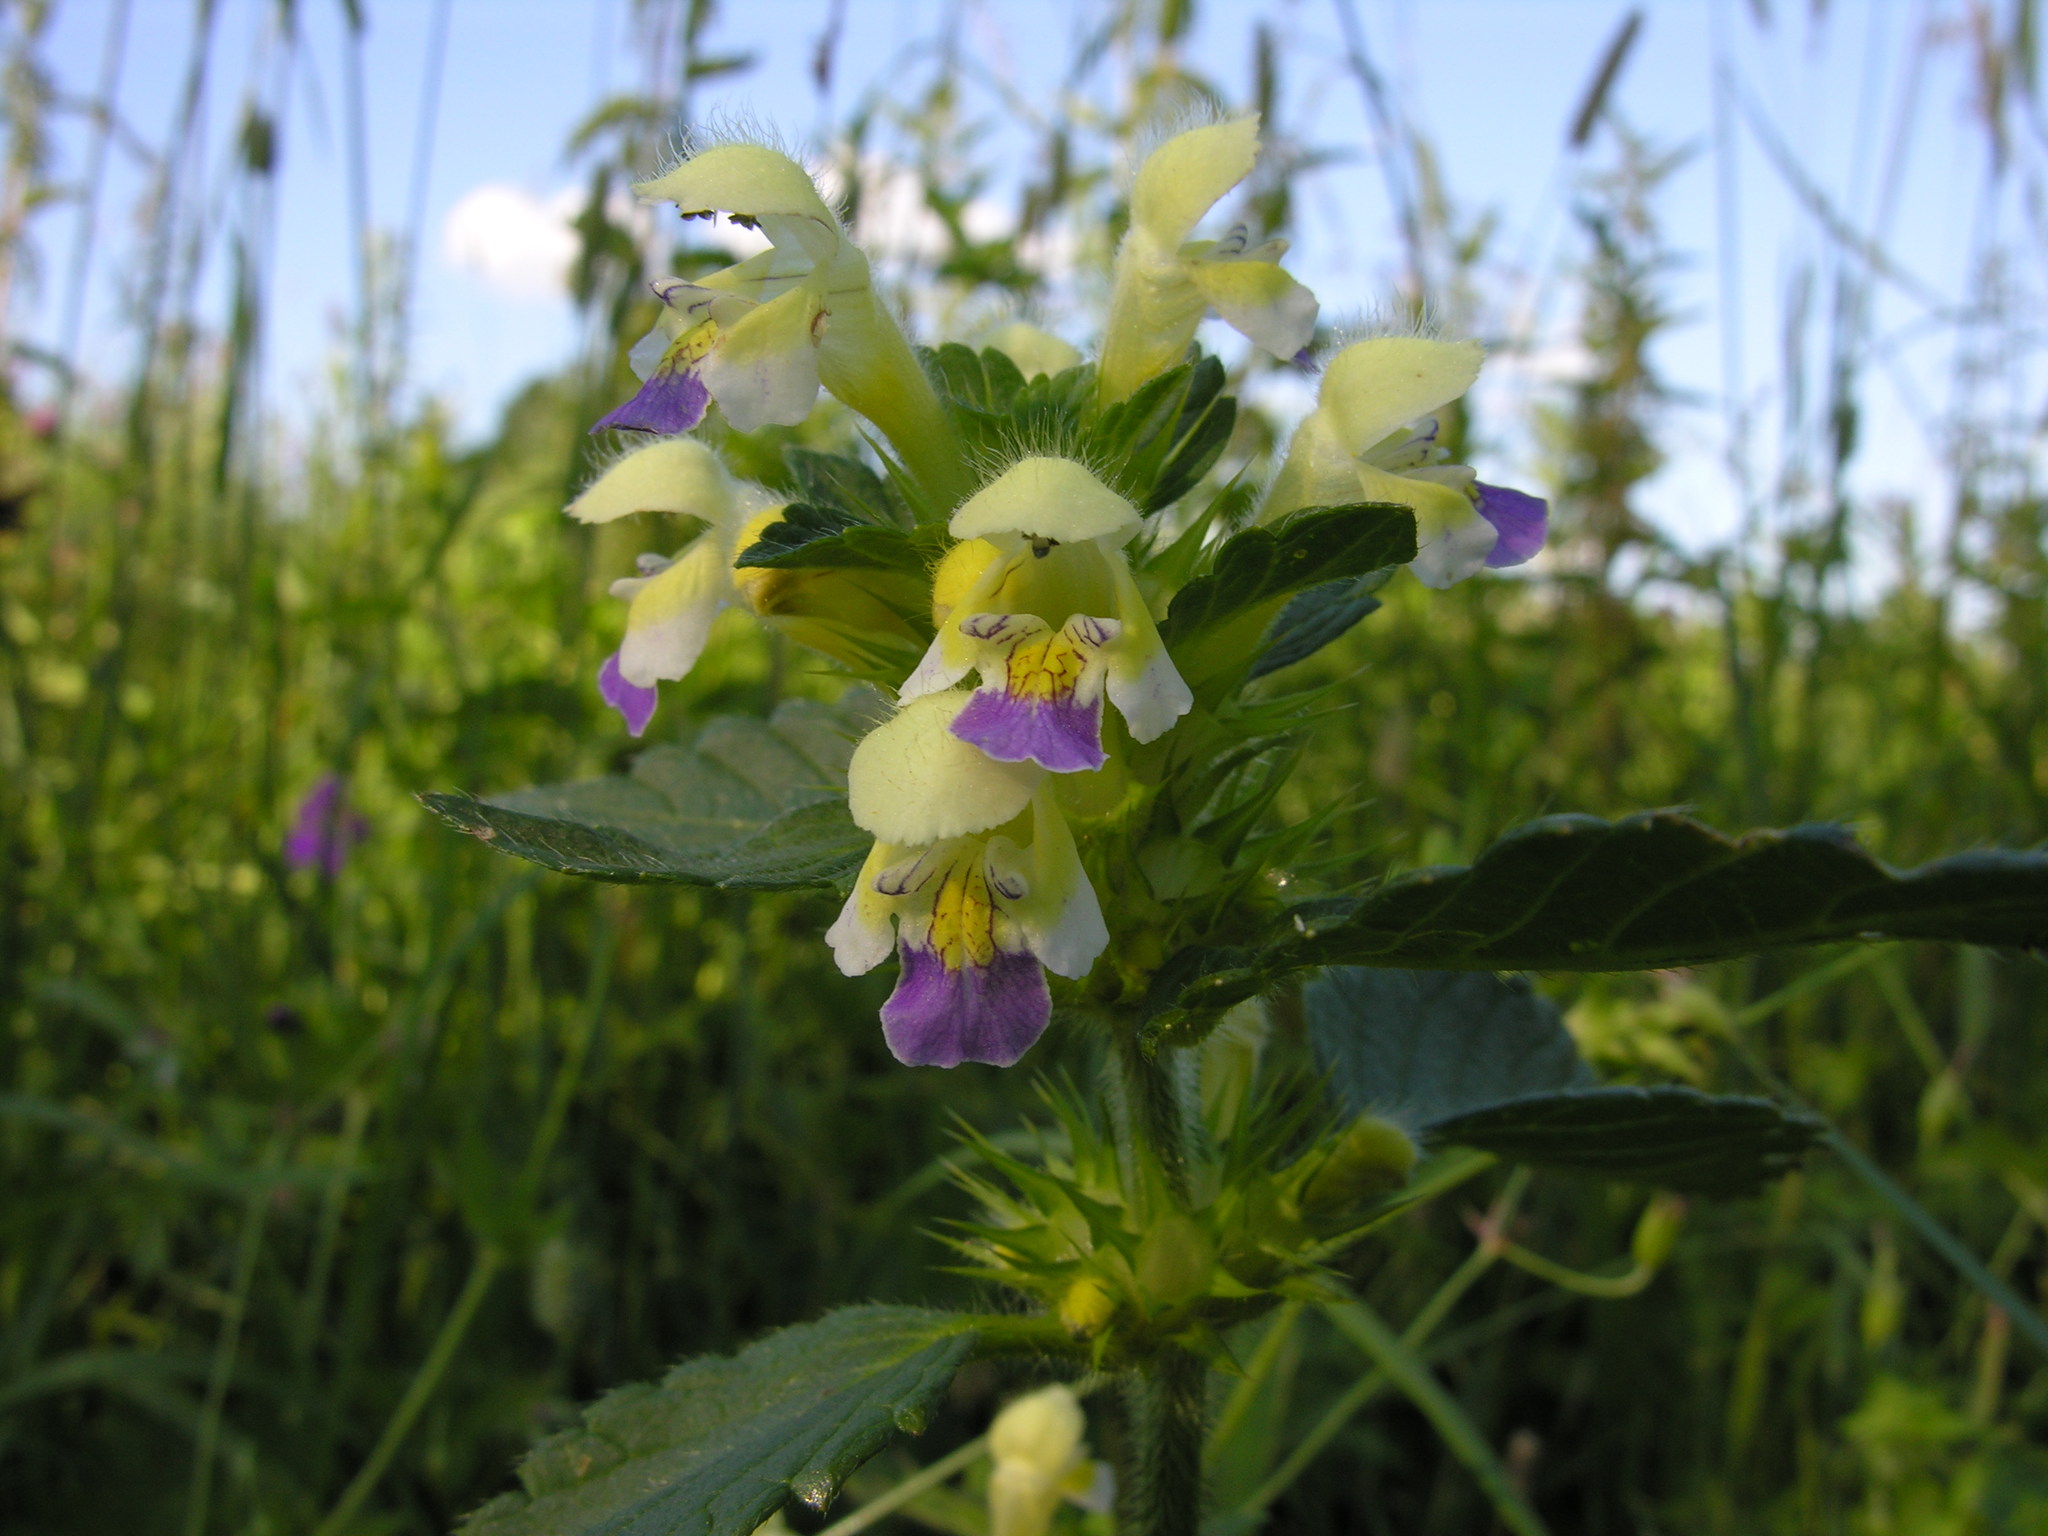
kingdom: Plantae
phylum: Tracheophyta
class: Magnoliopsida
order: Lamiales
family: Lamiaceae
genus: Galeopsis
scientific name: Galeopsis speciosa
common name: Large-flowered hemp-nettle
